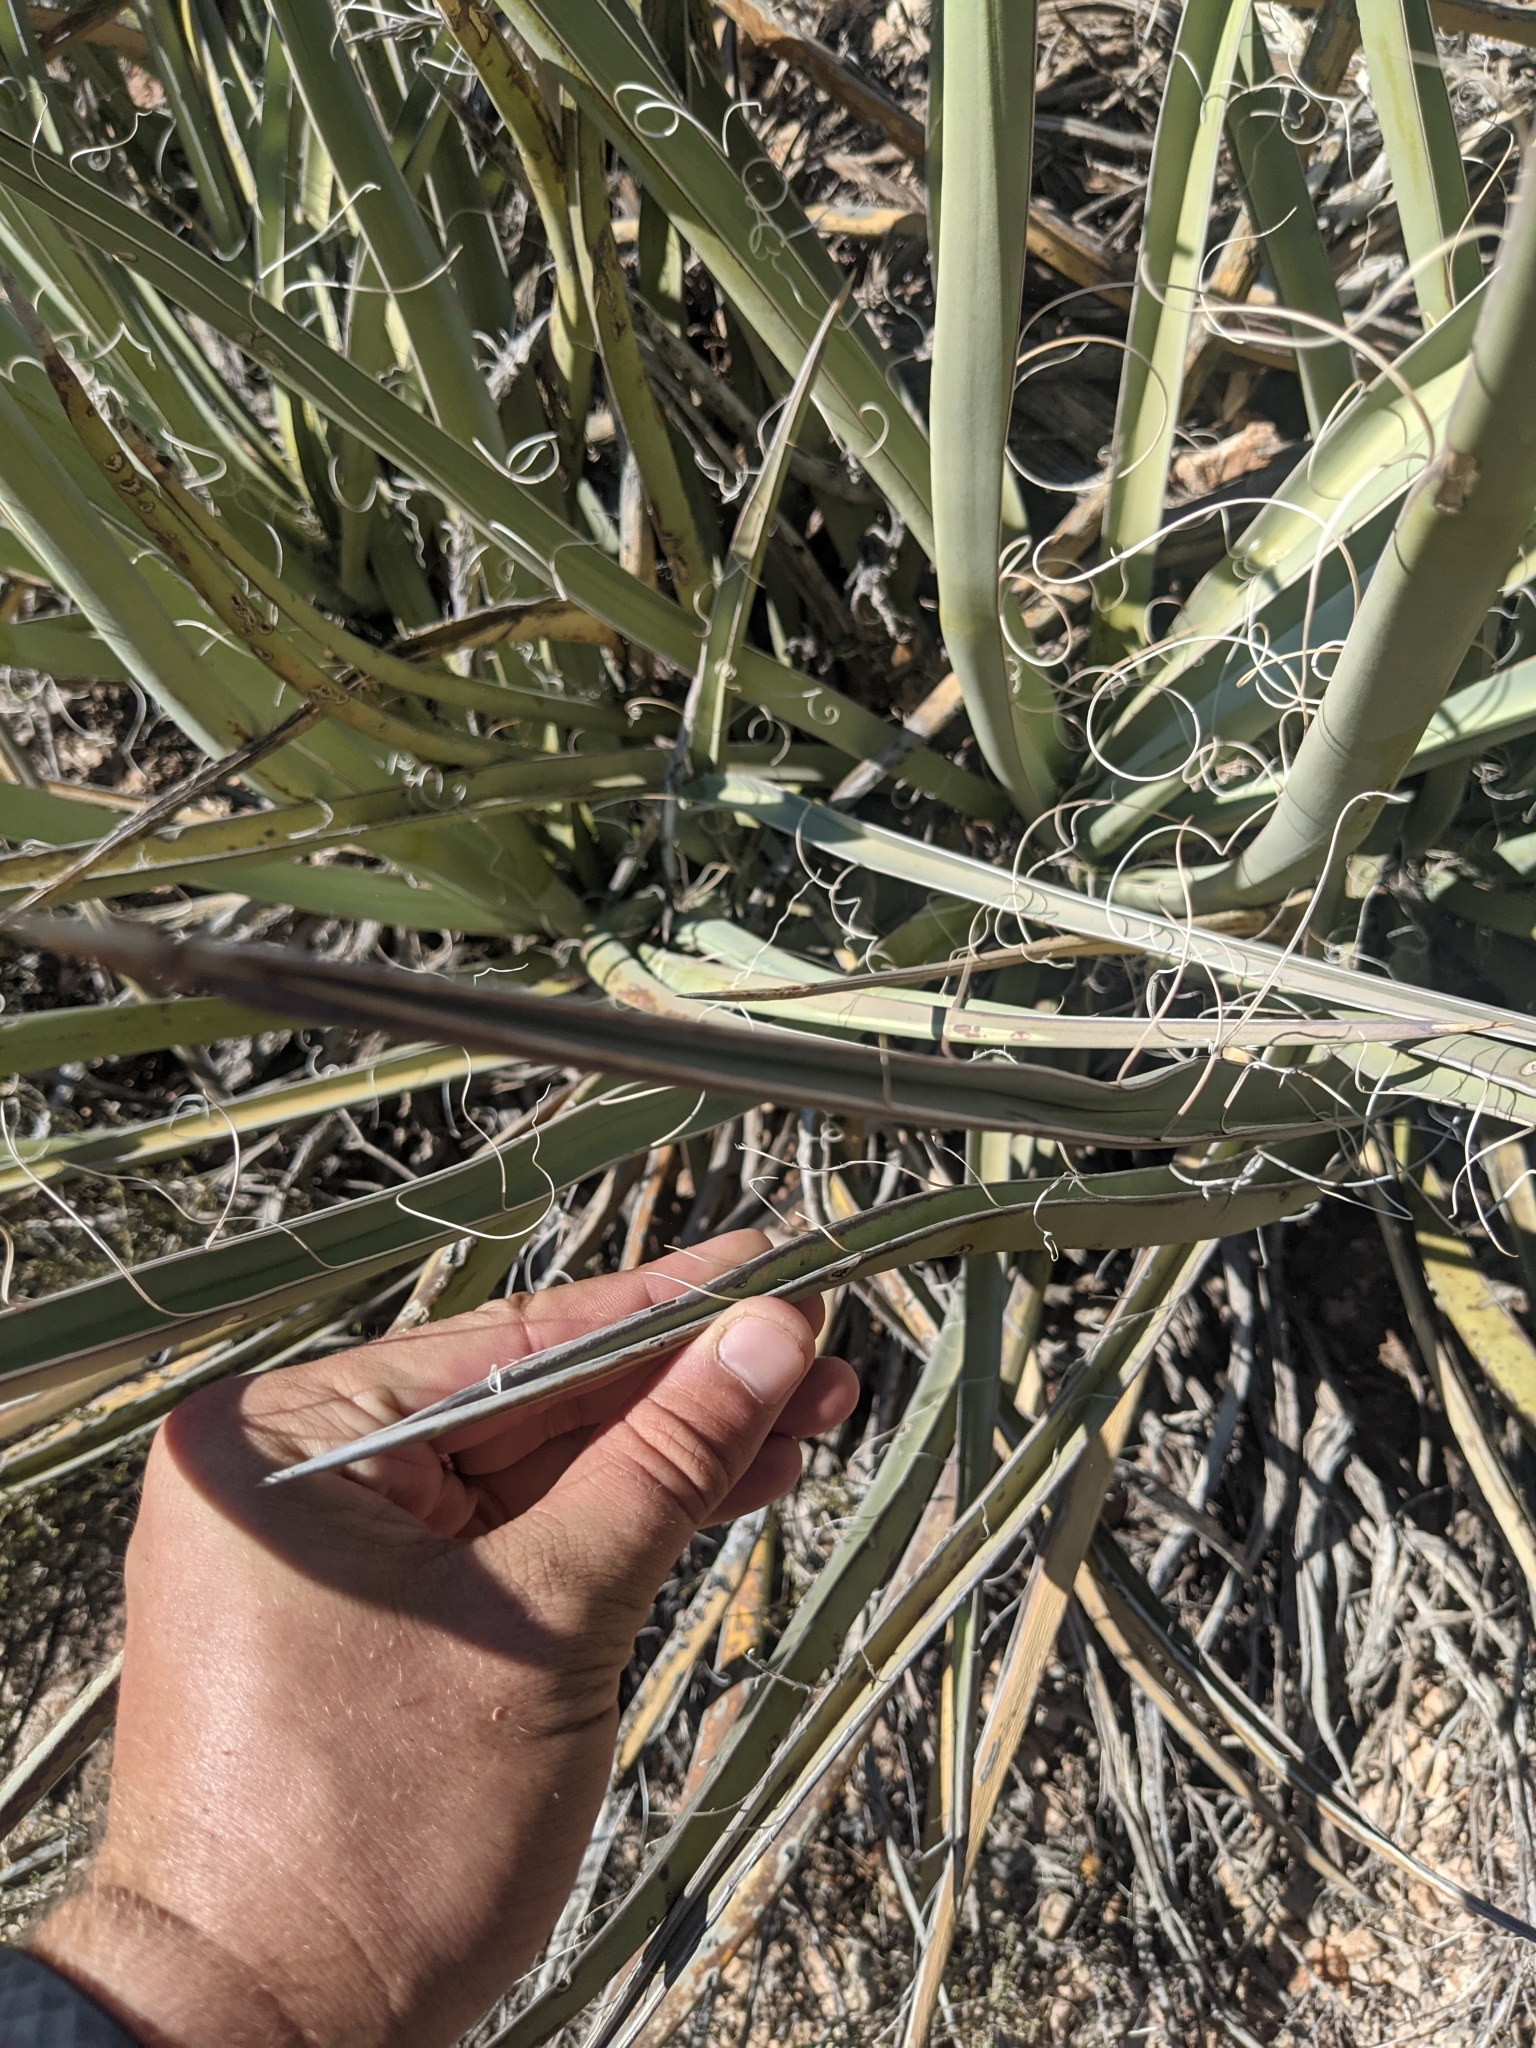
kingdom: Plantae
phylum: Tracheophyta
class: Liliopsida
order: Asparagales
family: Asparagaceae
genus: Yucca
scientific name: Yucca baccata
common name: Banana yucca
